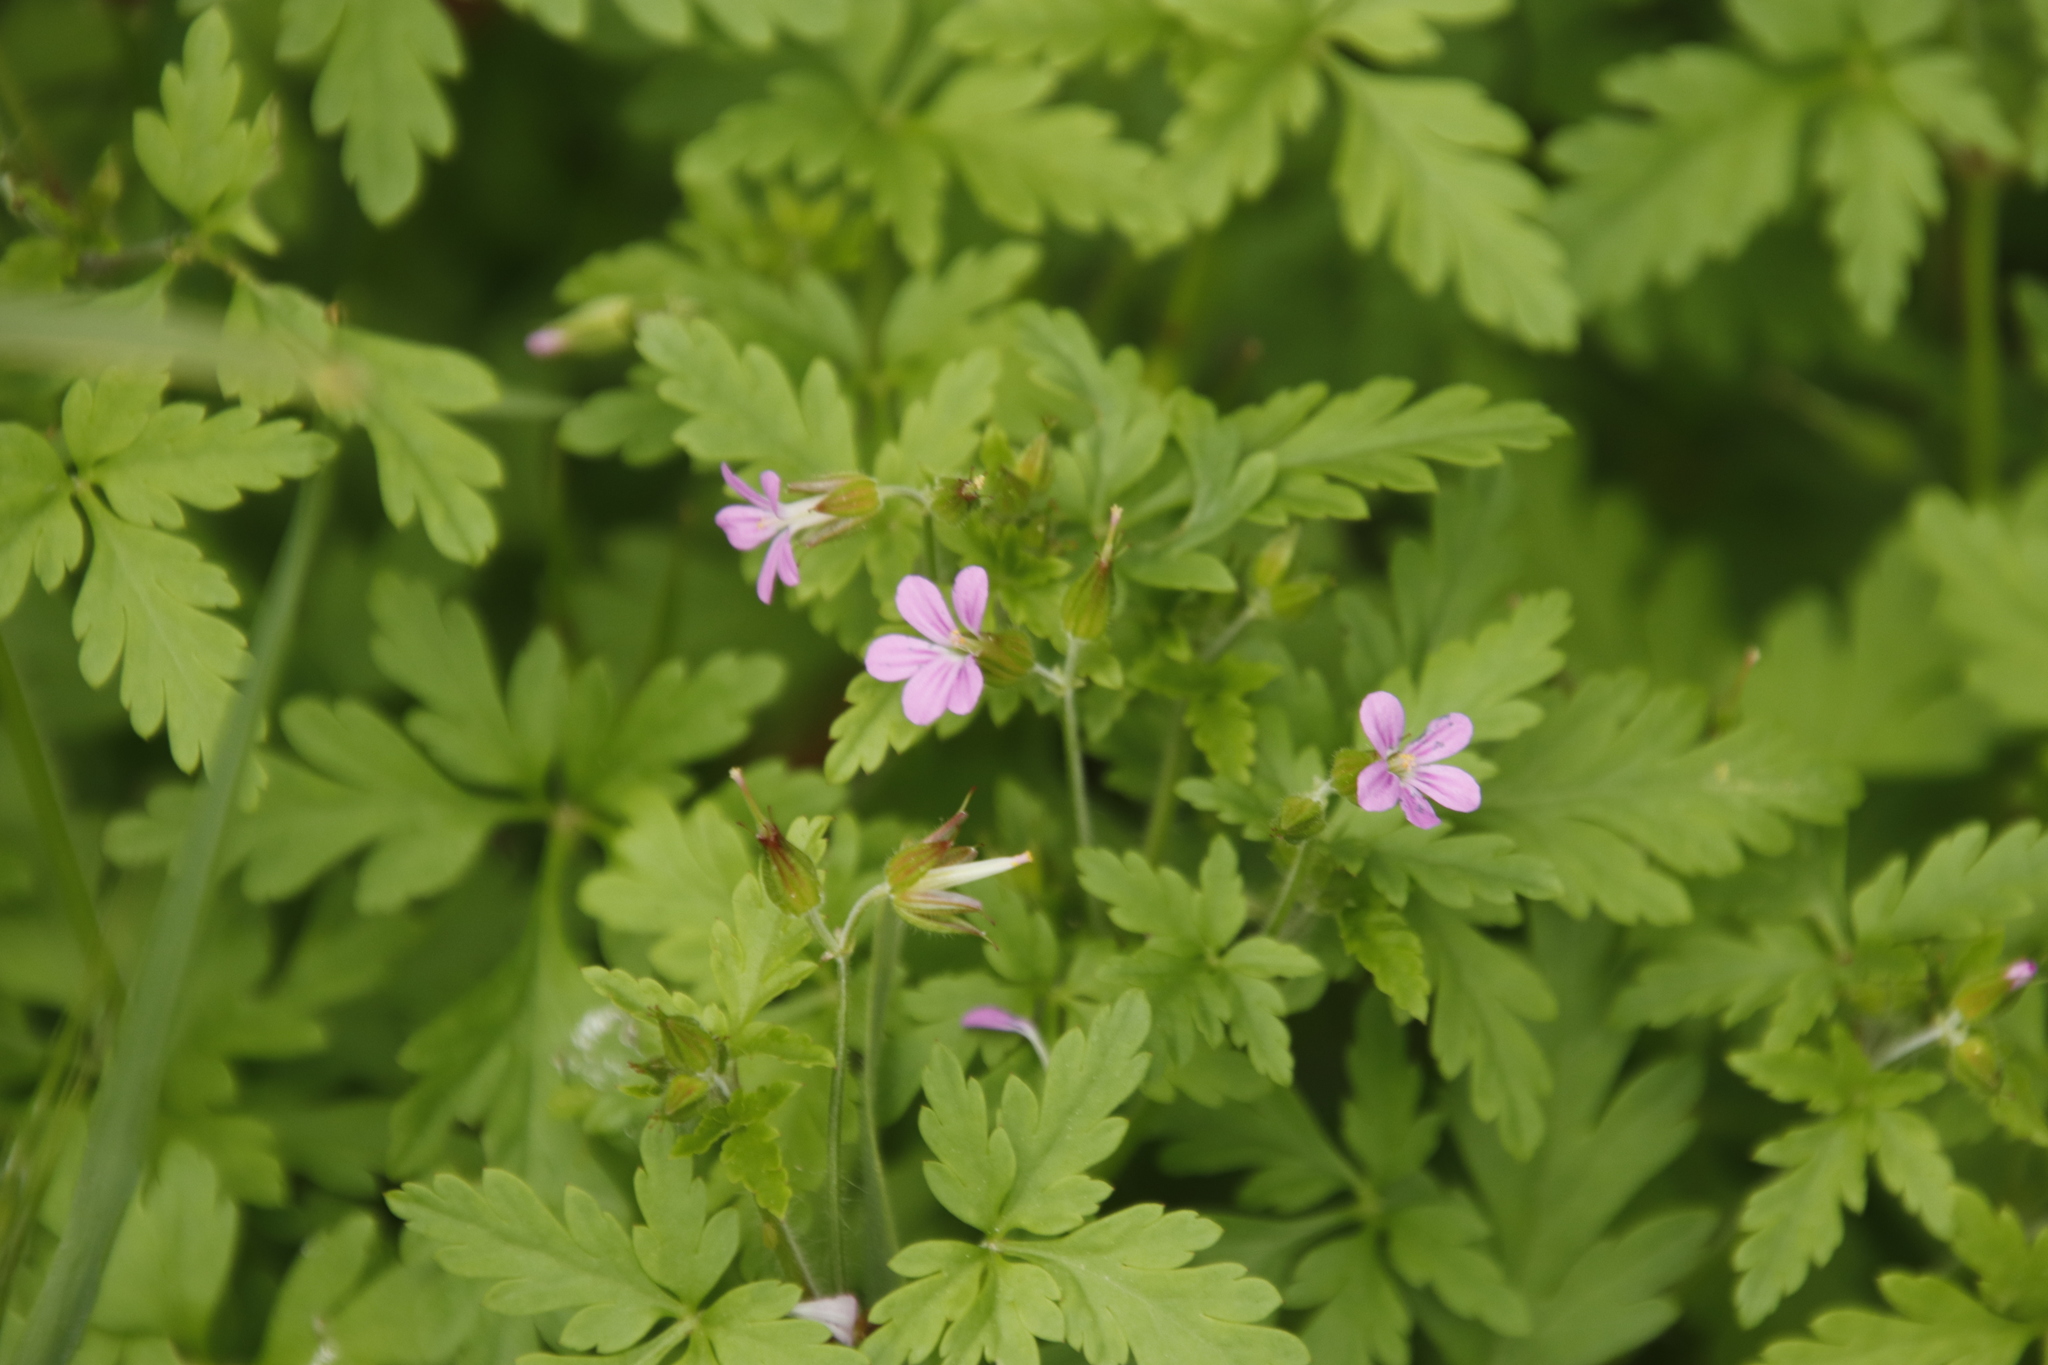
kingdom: Plantae
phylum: Tracheophyta
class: Magnoliopsida
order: Geraniales
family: Geraniaceae
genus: Geranium
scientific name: Geranium purpureum
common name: Little-robin
